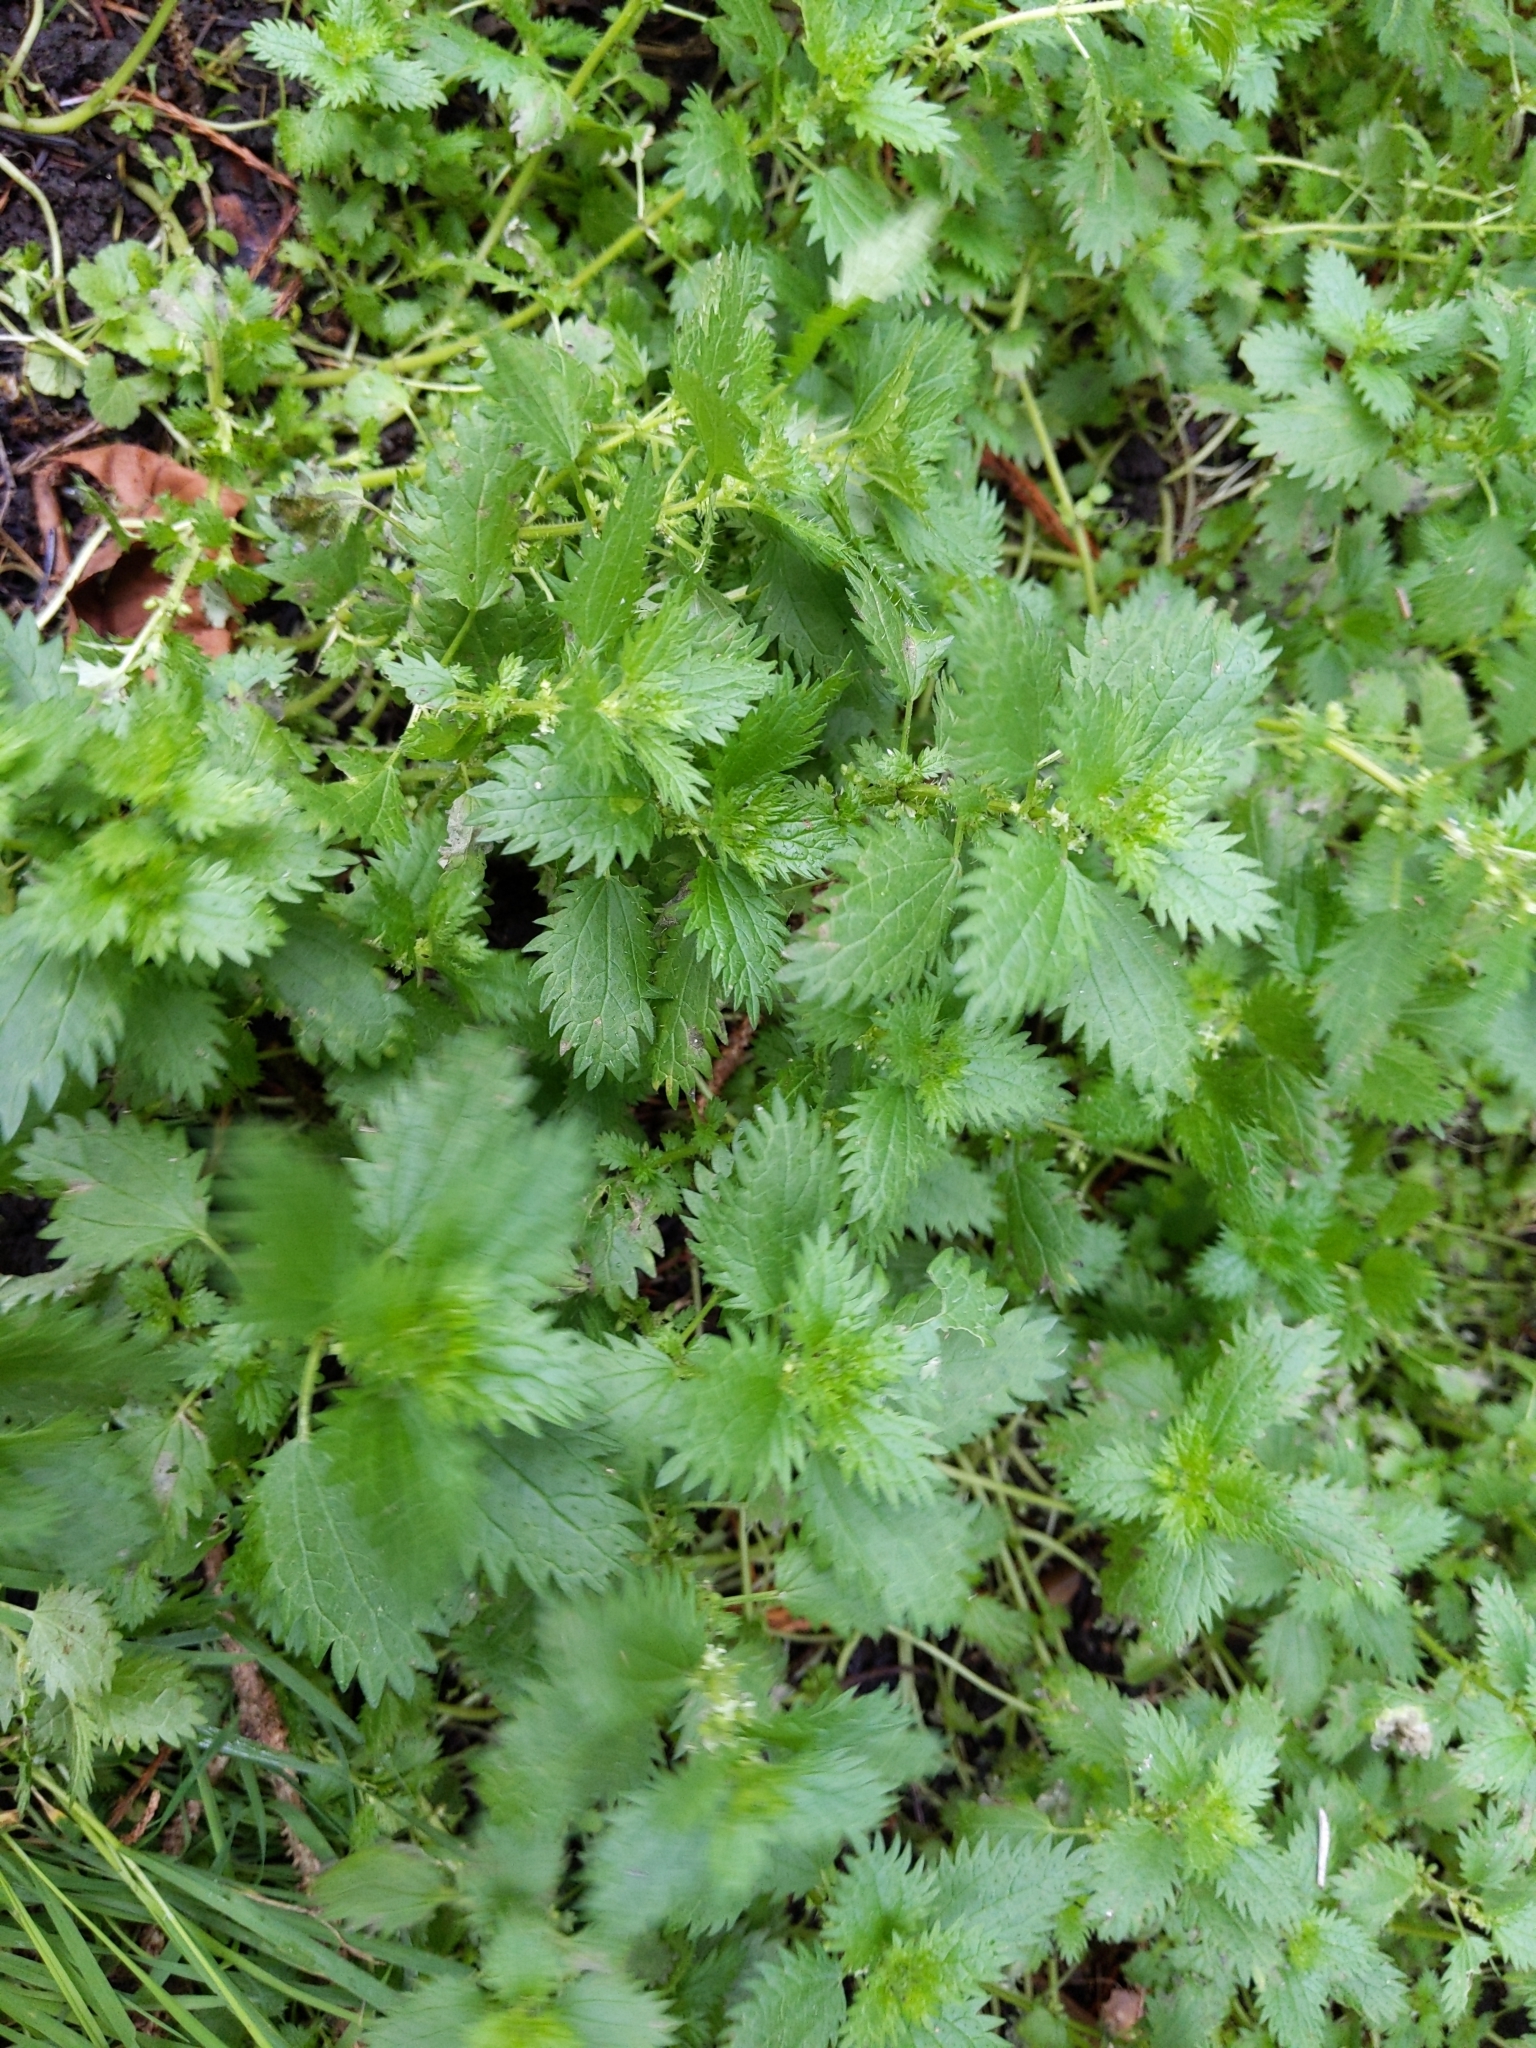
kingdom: Plantae
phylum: Tracheophyta
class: Magnoliopsida
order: Rosales
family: Urticaceae
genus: Urtica
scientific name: Urtica urens
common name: Dwarf nettle
